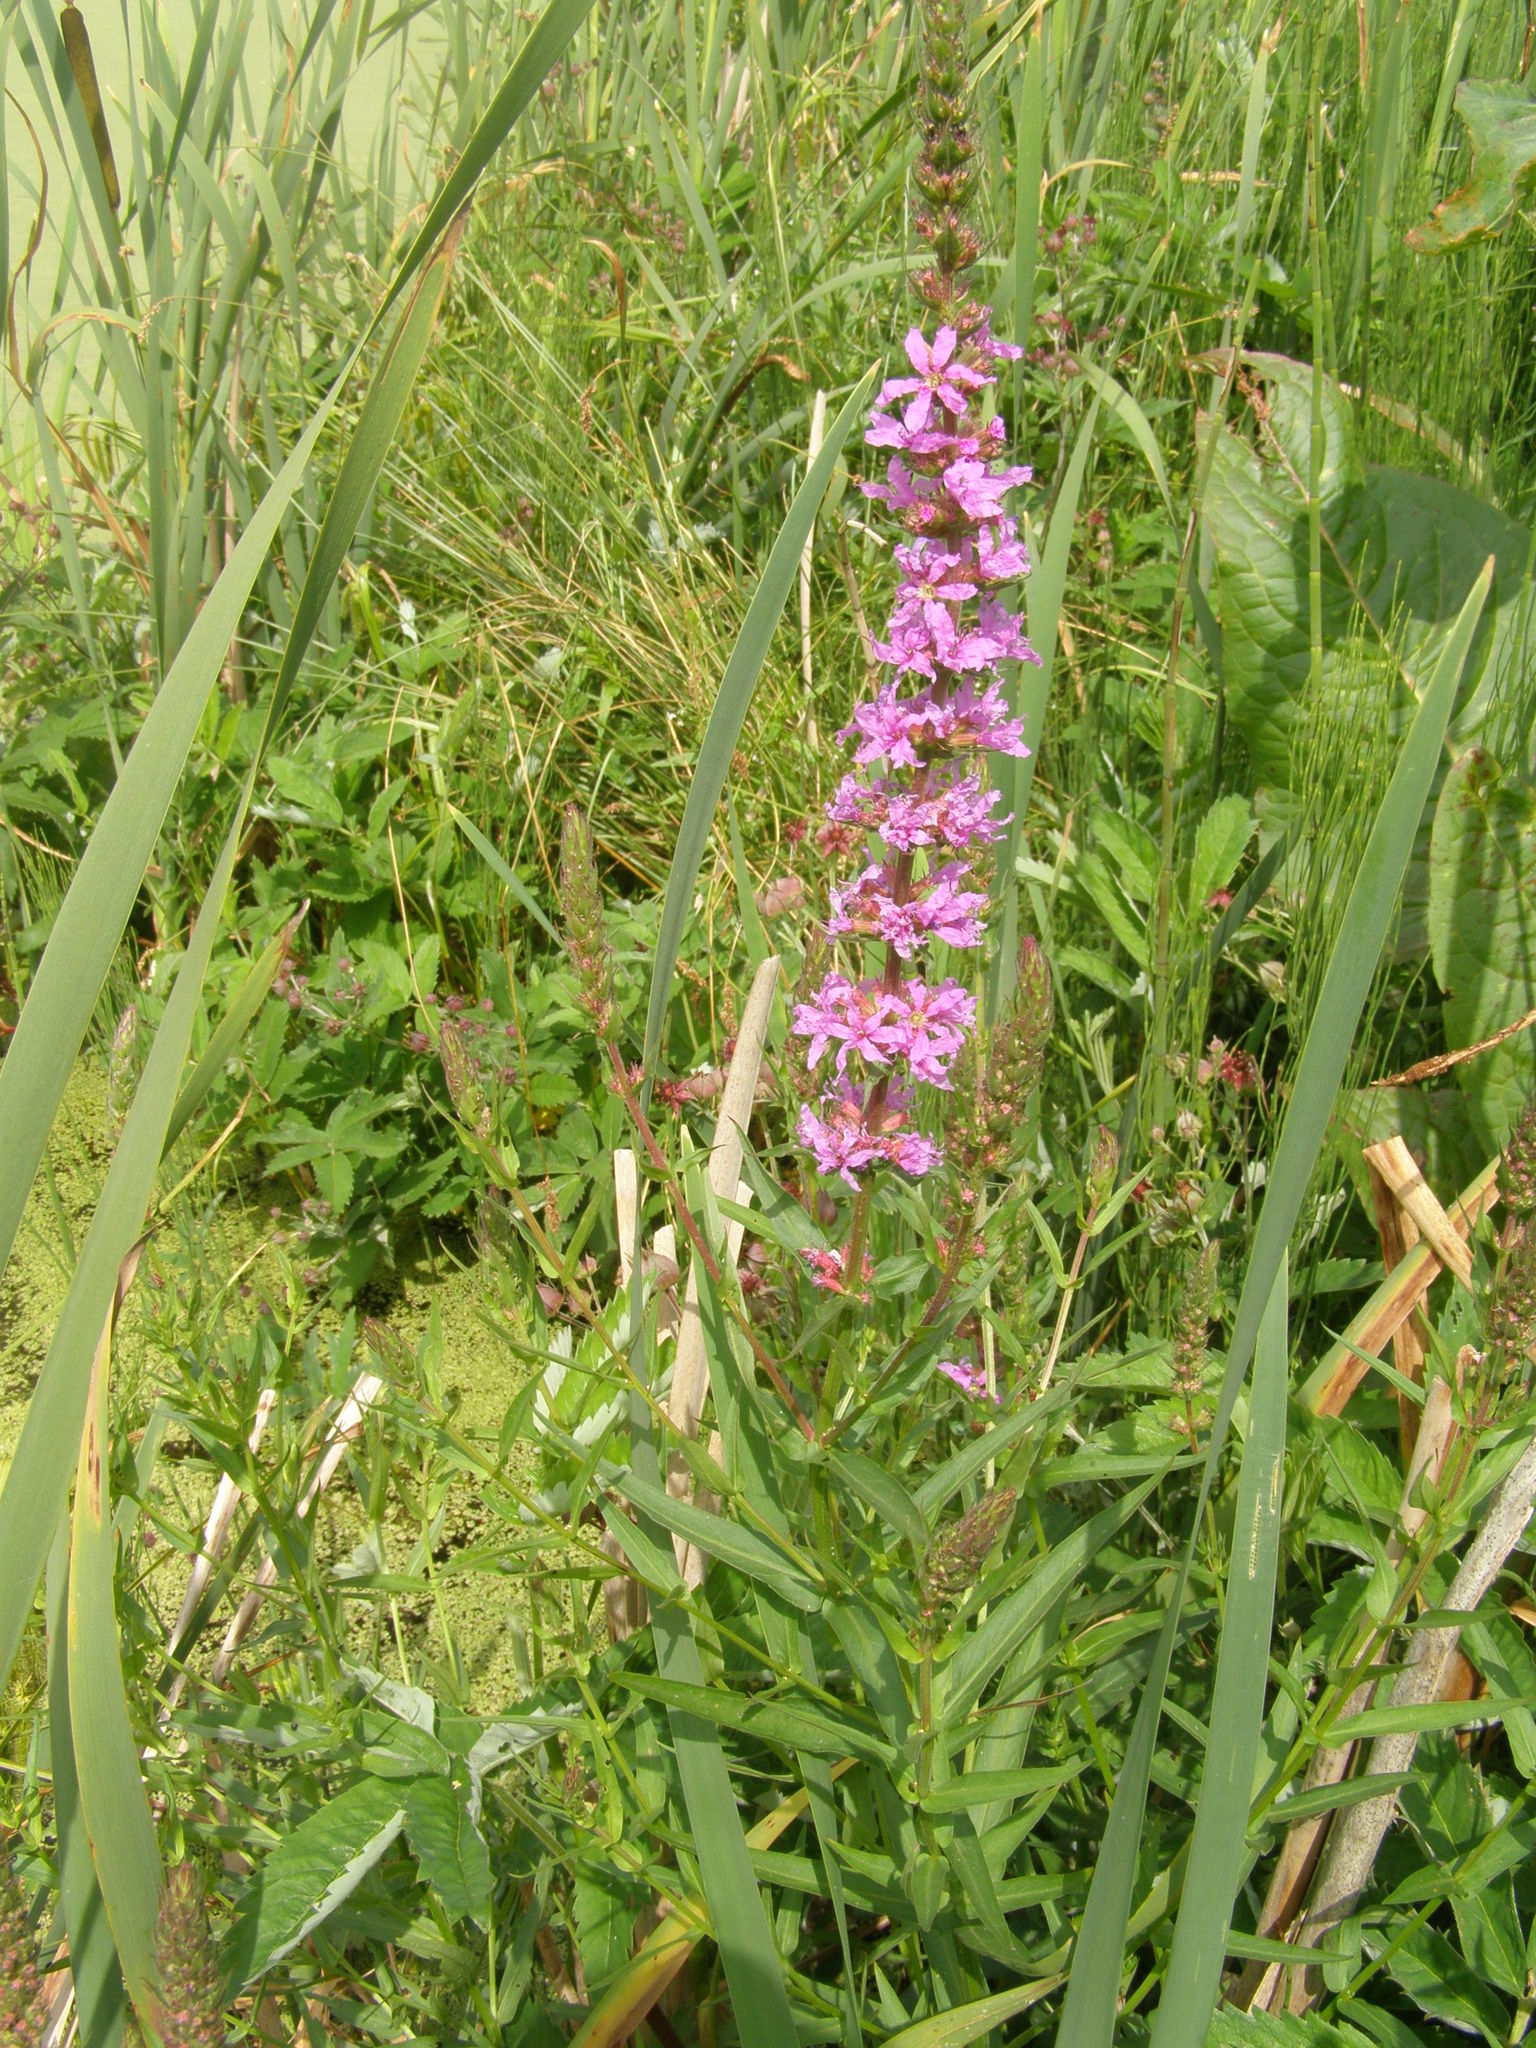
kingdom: Plantae
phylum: Tracheophyta
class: Magnoliopsida
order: Myrtales
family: Lythraceae
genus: Lythrum
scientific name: Lythrum salicaria
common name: Purple loosestrife
